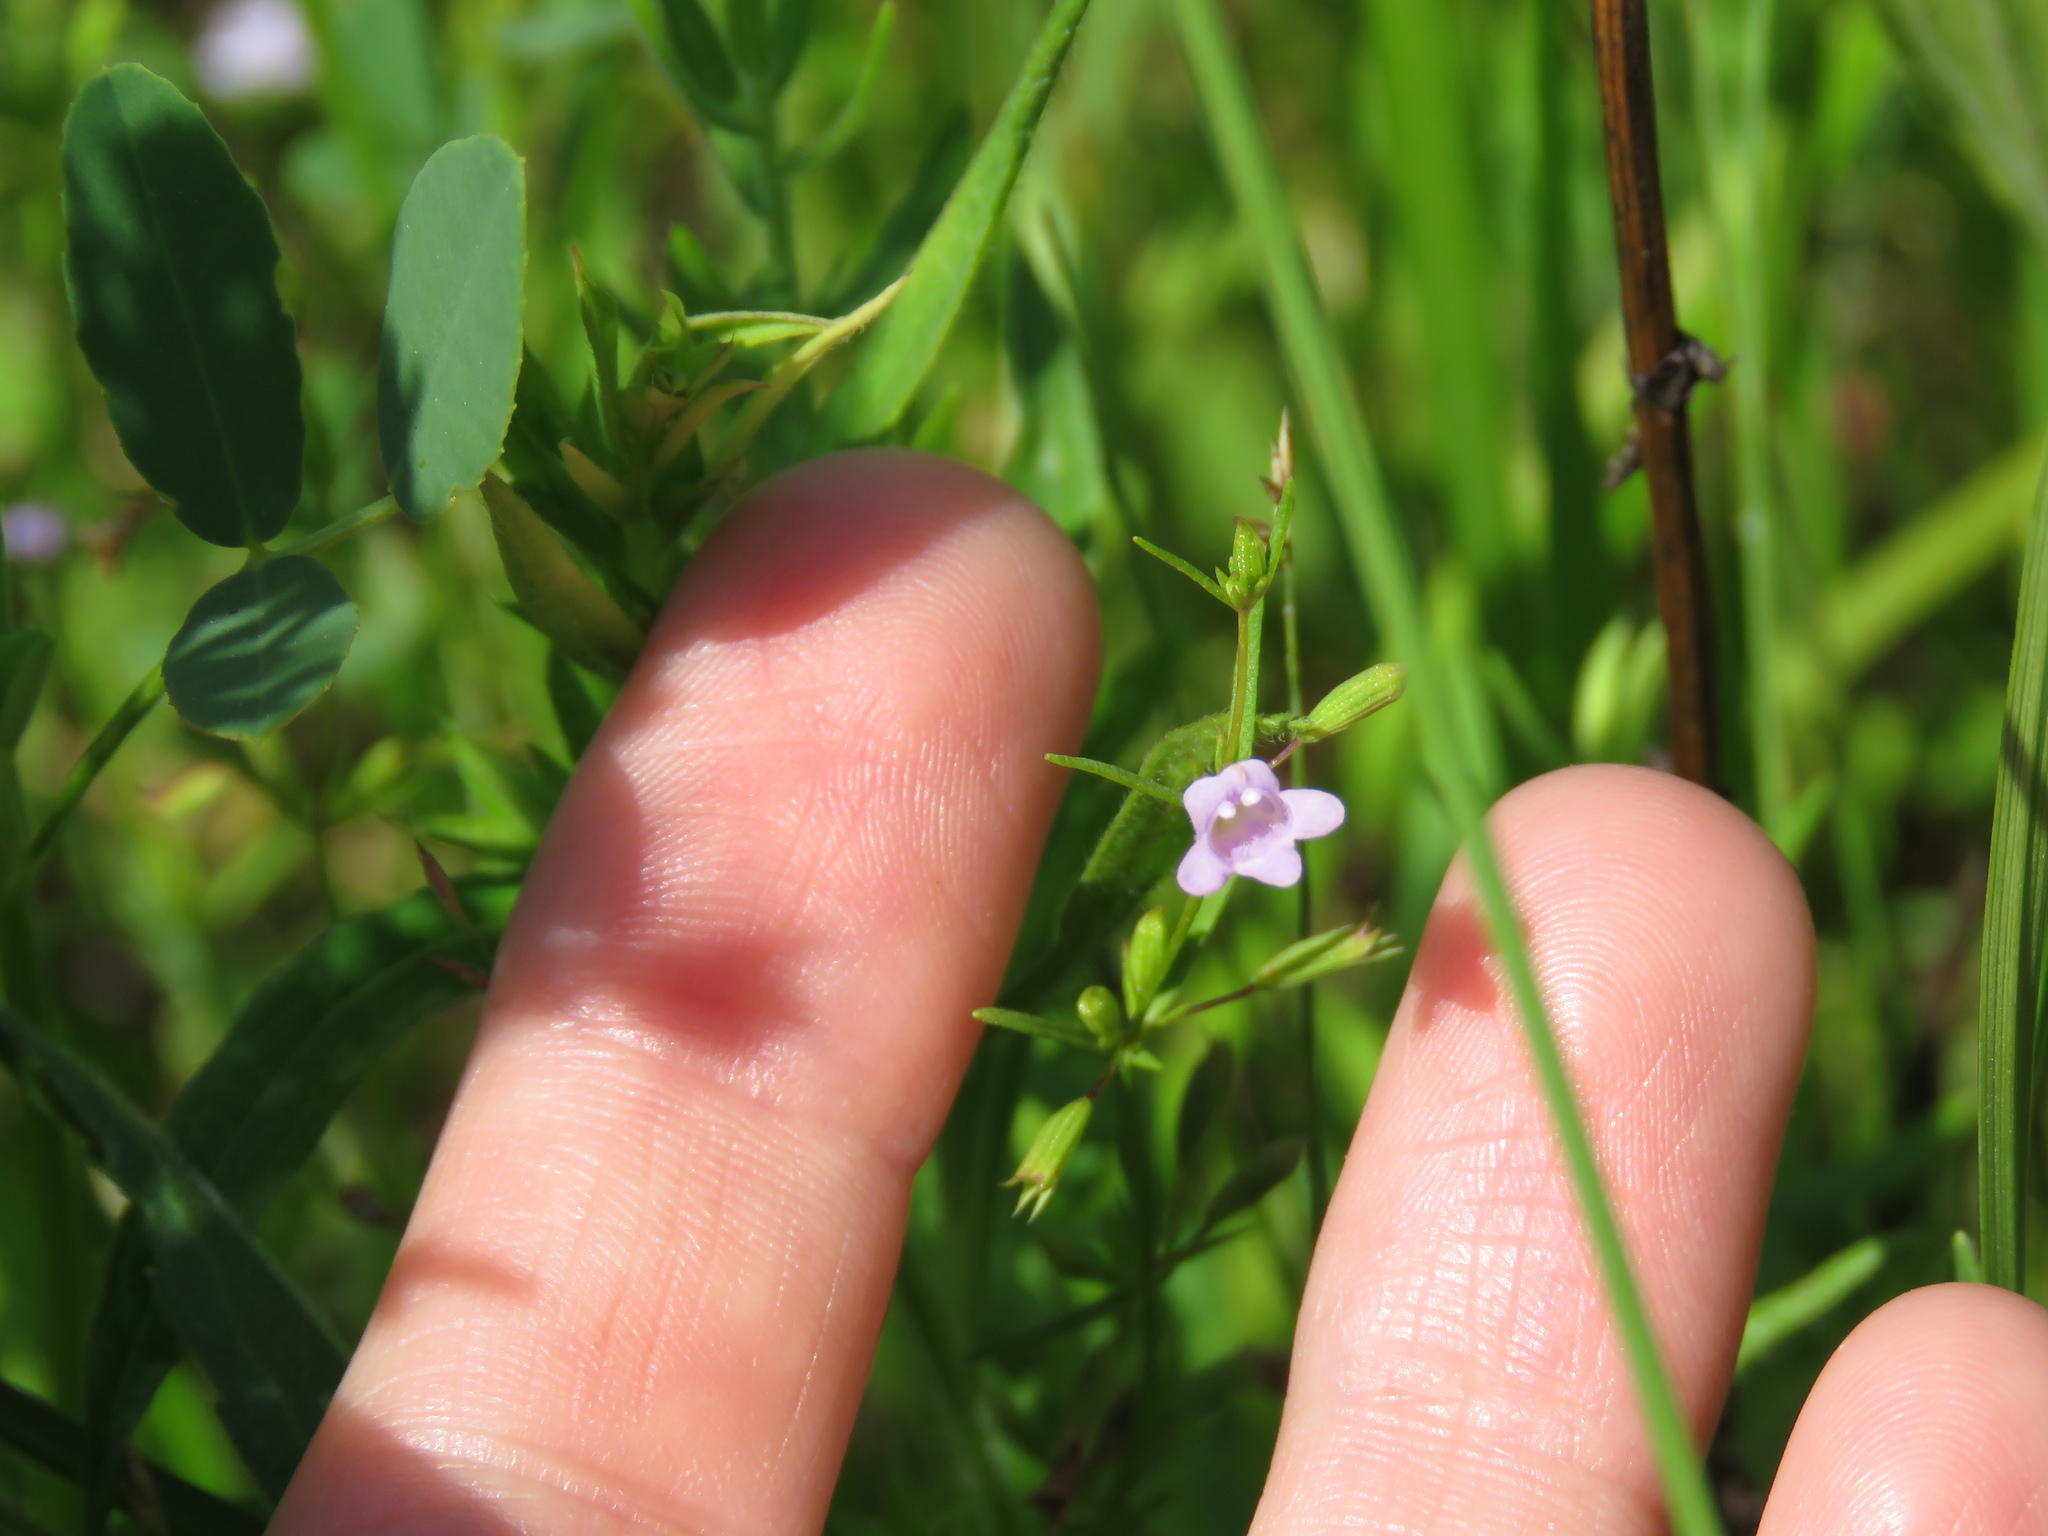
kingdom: Plantae
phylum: Tracheophyta
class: Magnoliopsida
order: Lamiales
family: Lamiaceae
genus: Clinopodium
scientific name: Clinopodium arkansanum
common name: Limestone calamint
